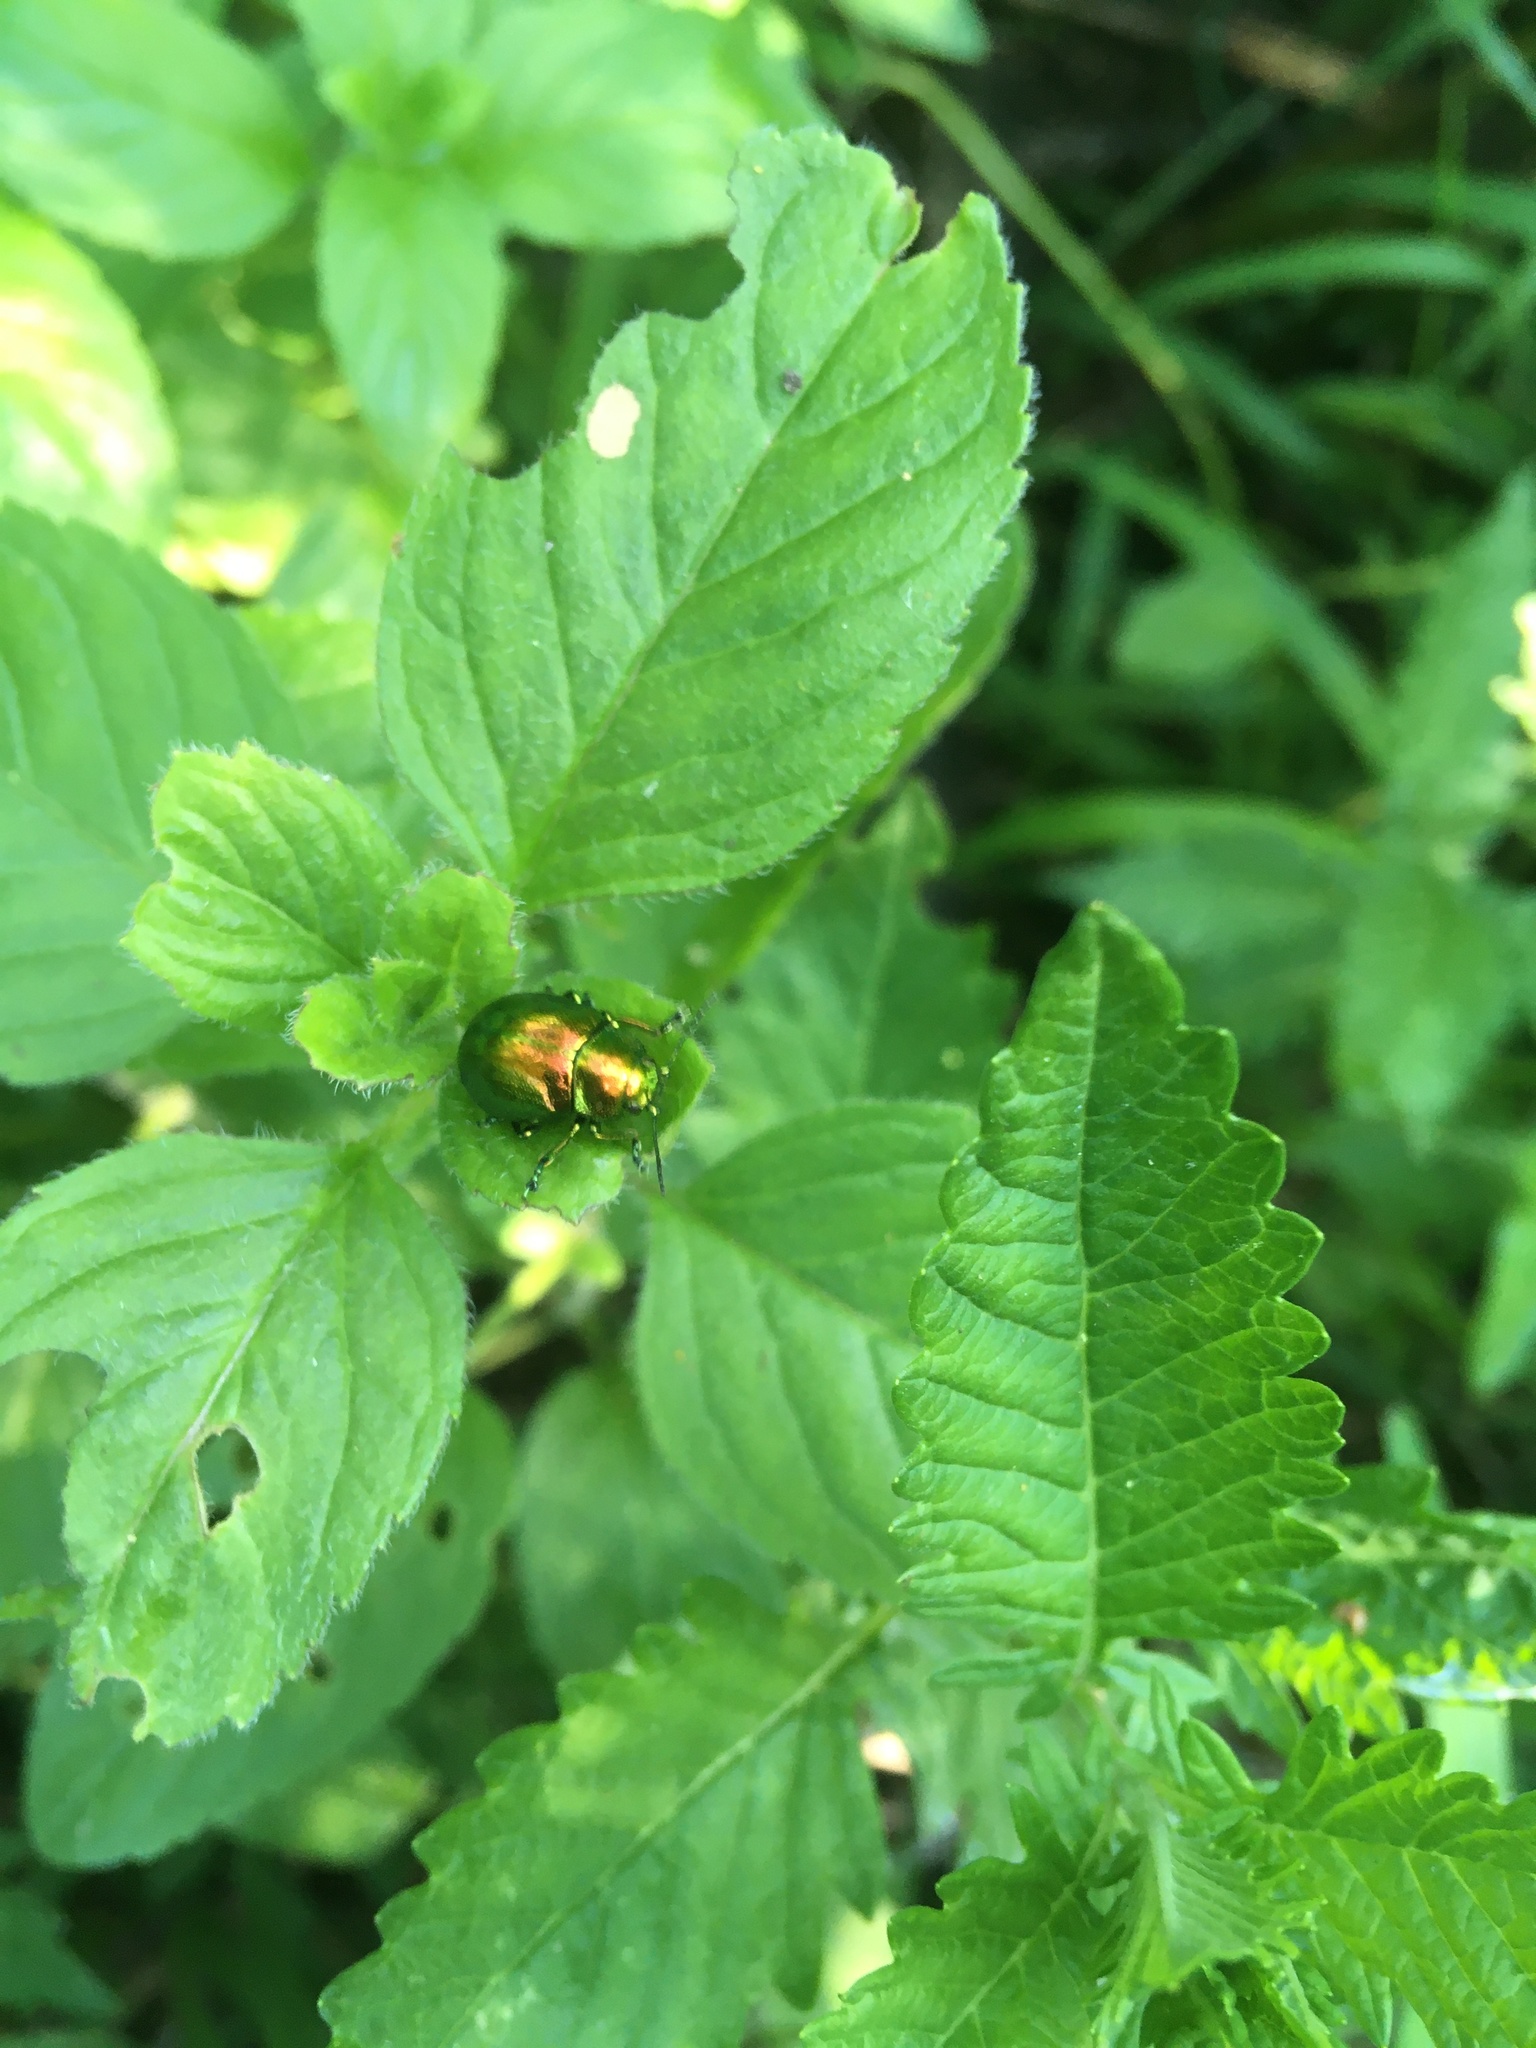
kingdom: Animalia
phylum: Arthropoda
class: Insecta
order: Coleoptera
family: Chrysomelidae
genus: Chrysolina
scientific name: Chrysolina herbacea
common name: Mint leaf beatle
